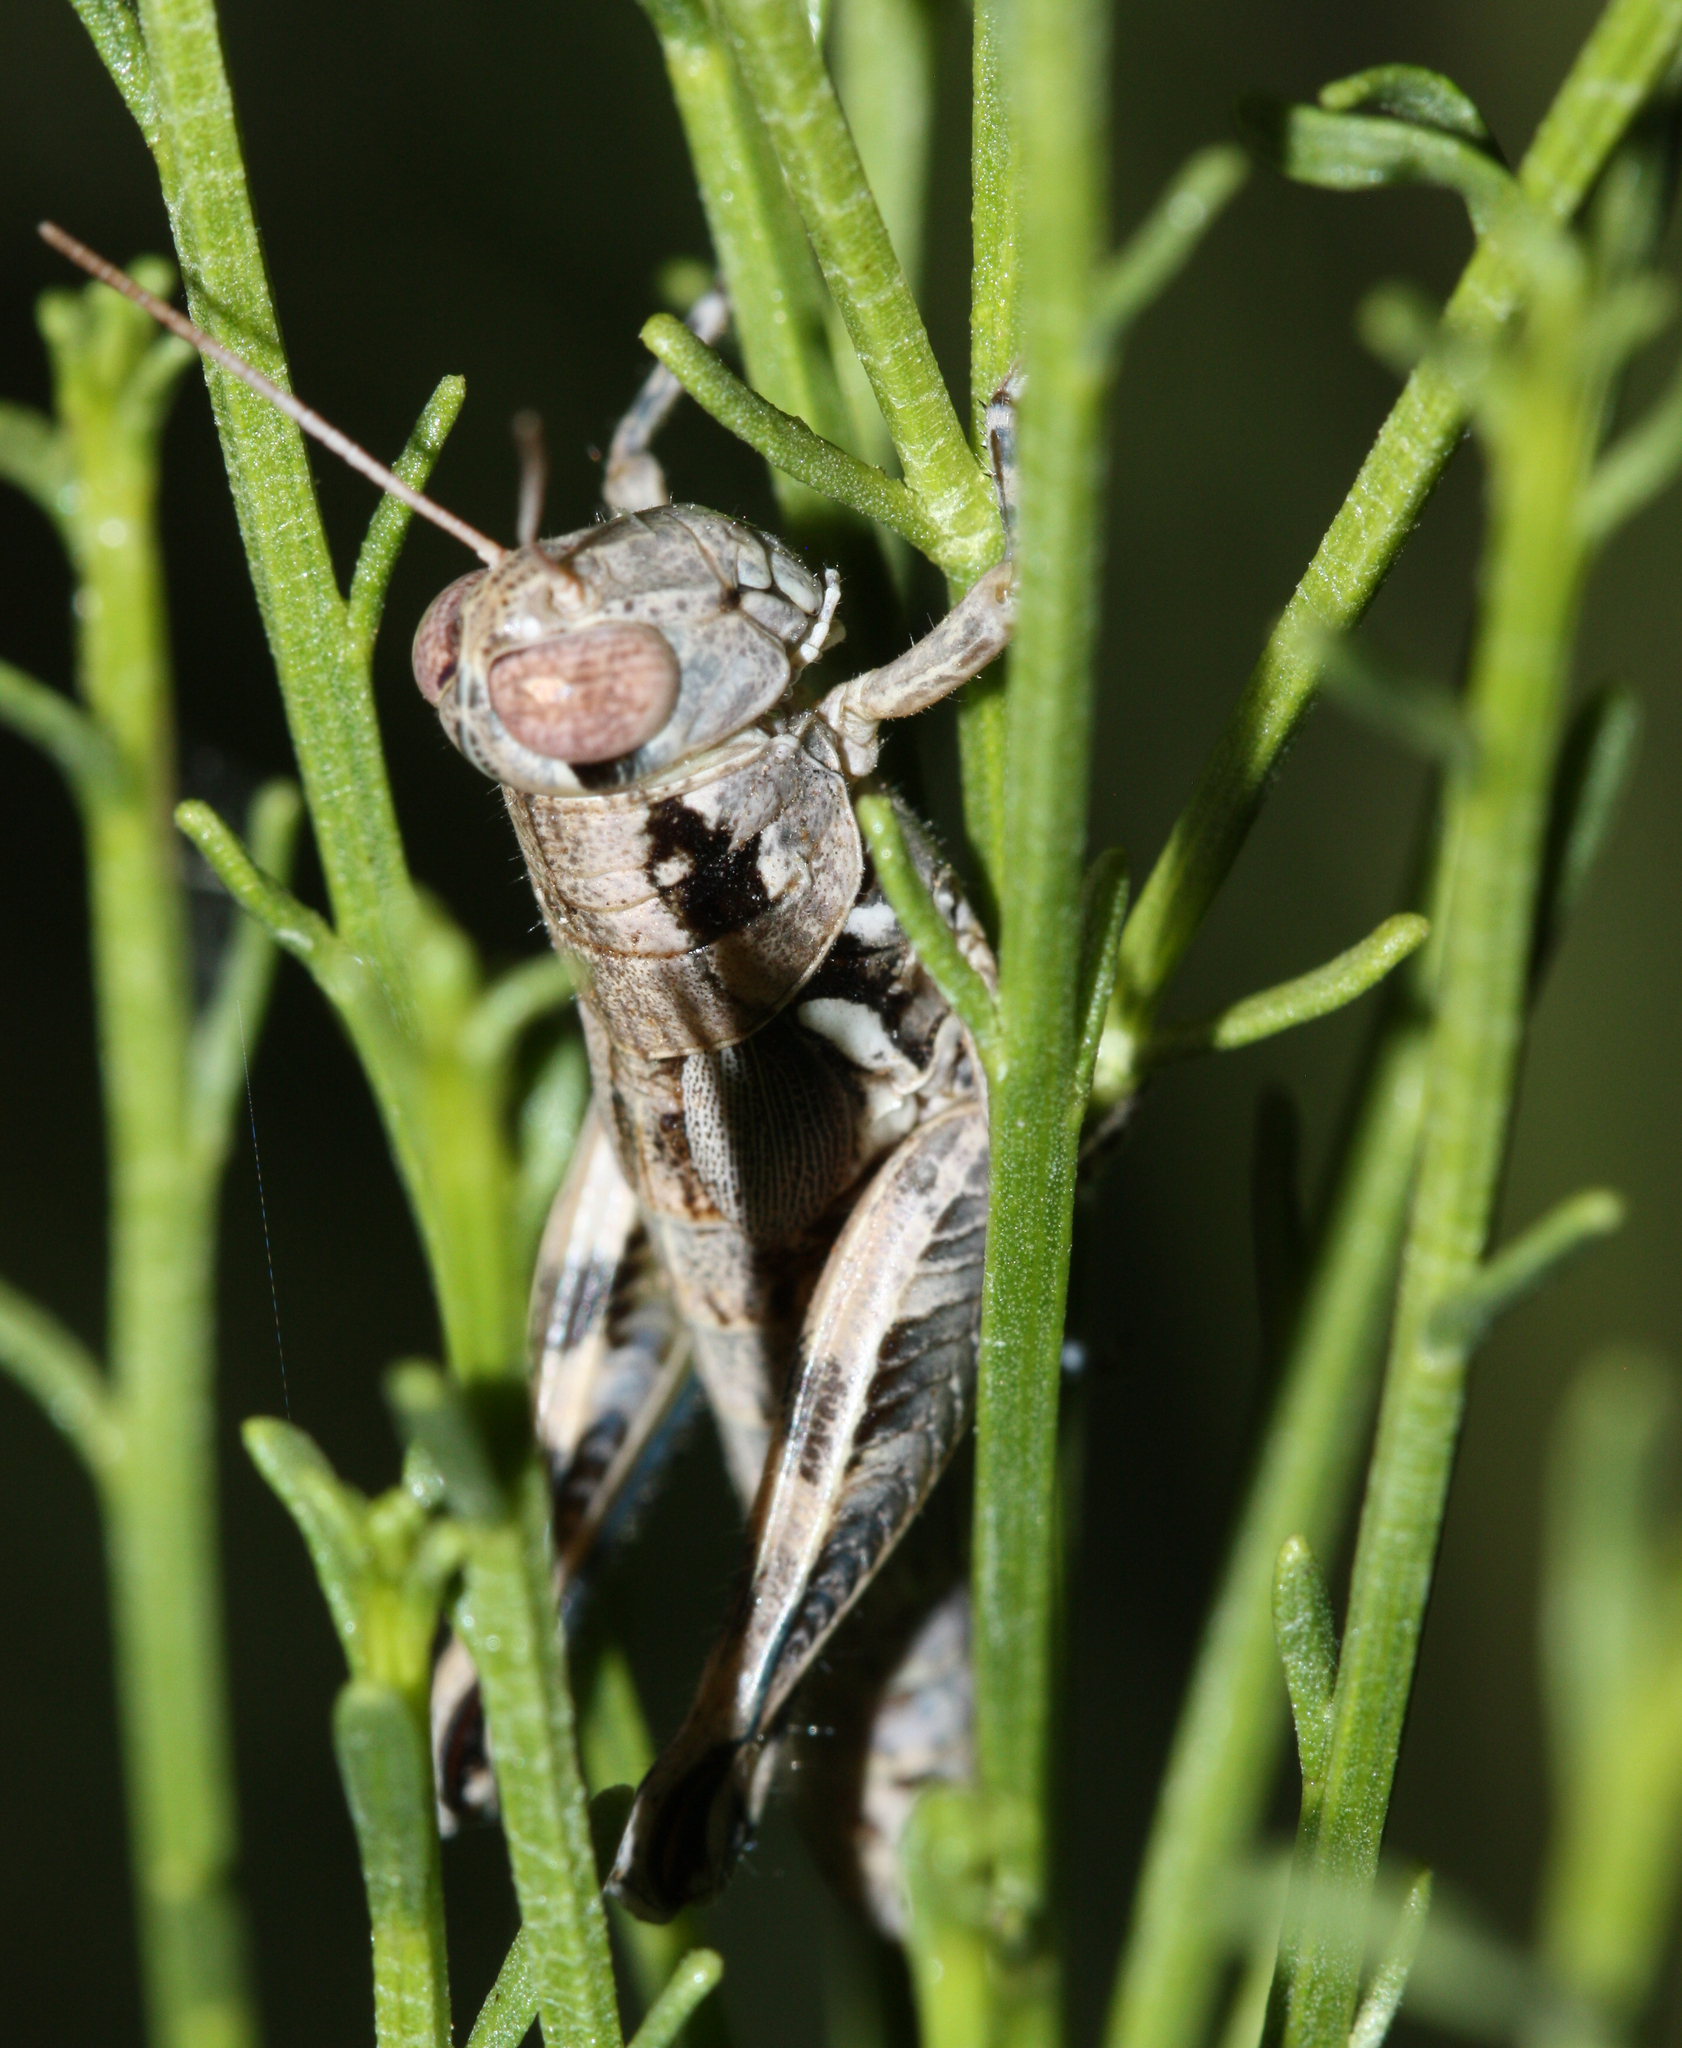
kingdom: Animalia
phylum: Arthropoda
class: Insecta
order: Orthoptera
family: Acrididae
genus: Melanoplus
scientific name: Melanoplus aridus
